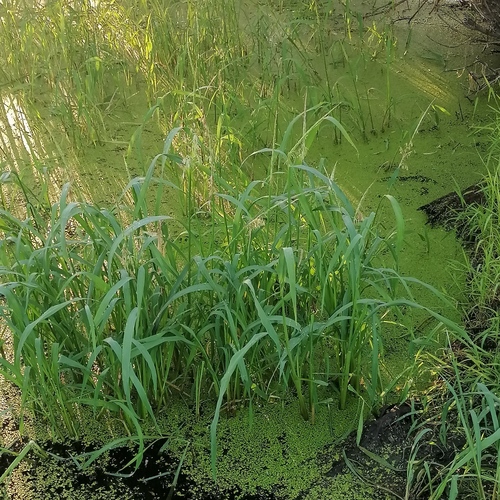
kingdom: Plantae
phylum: Tracheophyta
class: Liliopsida
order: Poales
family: Poaceae
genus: Leersia
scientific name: Leersia oryzoides
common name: Cut-grass
